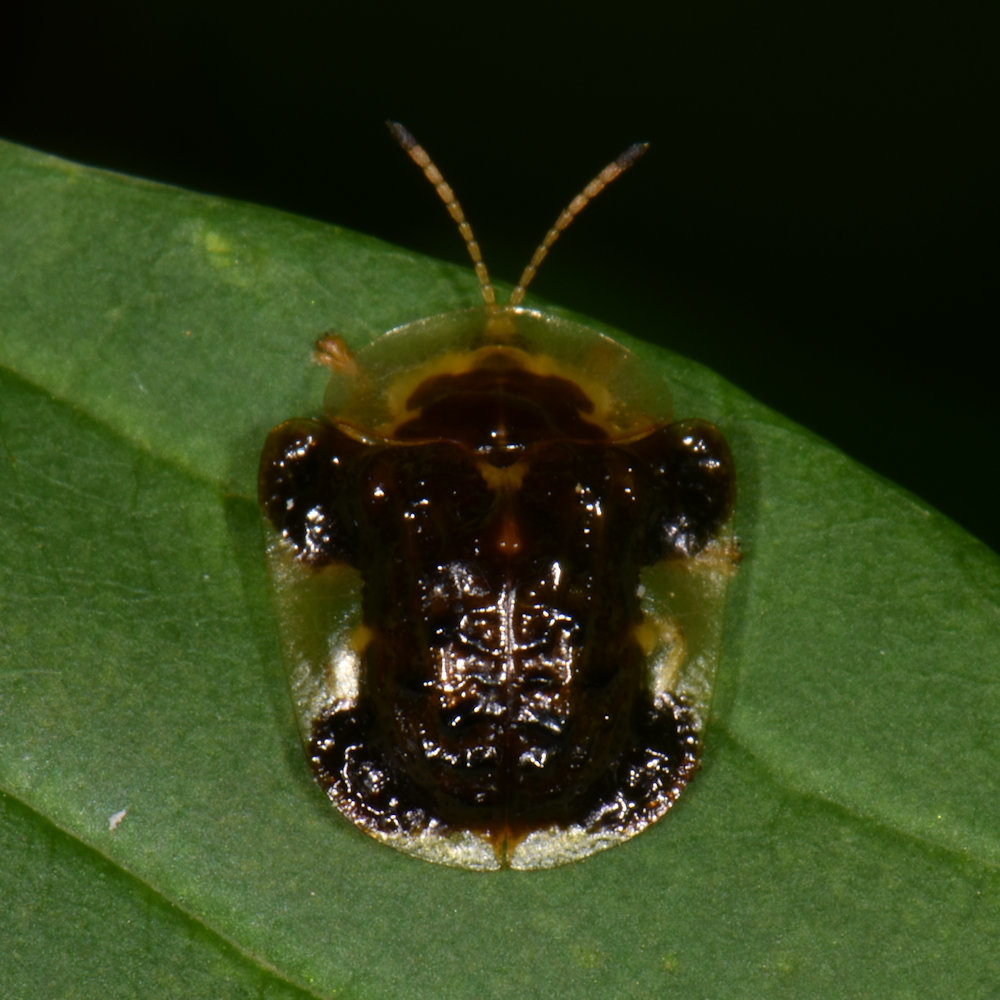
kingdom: Animalia
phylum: Arthropoda
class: Insecta
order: Coleoptera
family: Chrysomelidae
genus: Helocassis
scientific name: Helocassis clavata
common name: Clavate tortoise beetle
